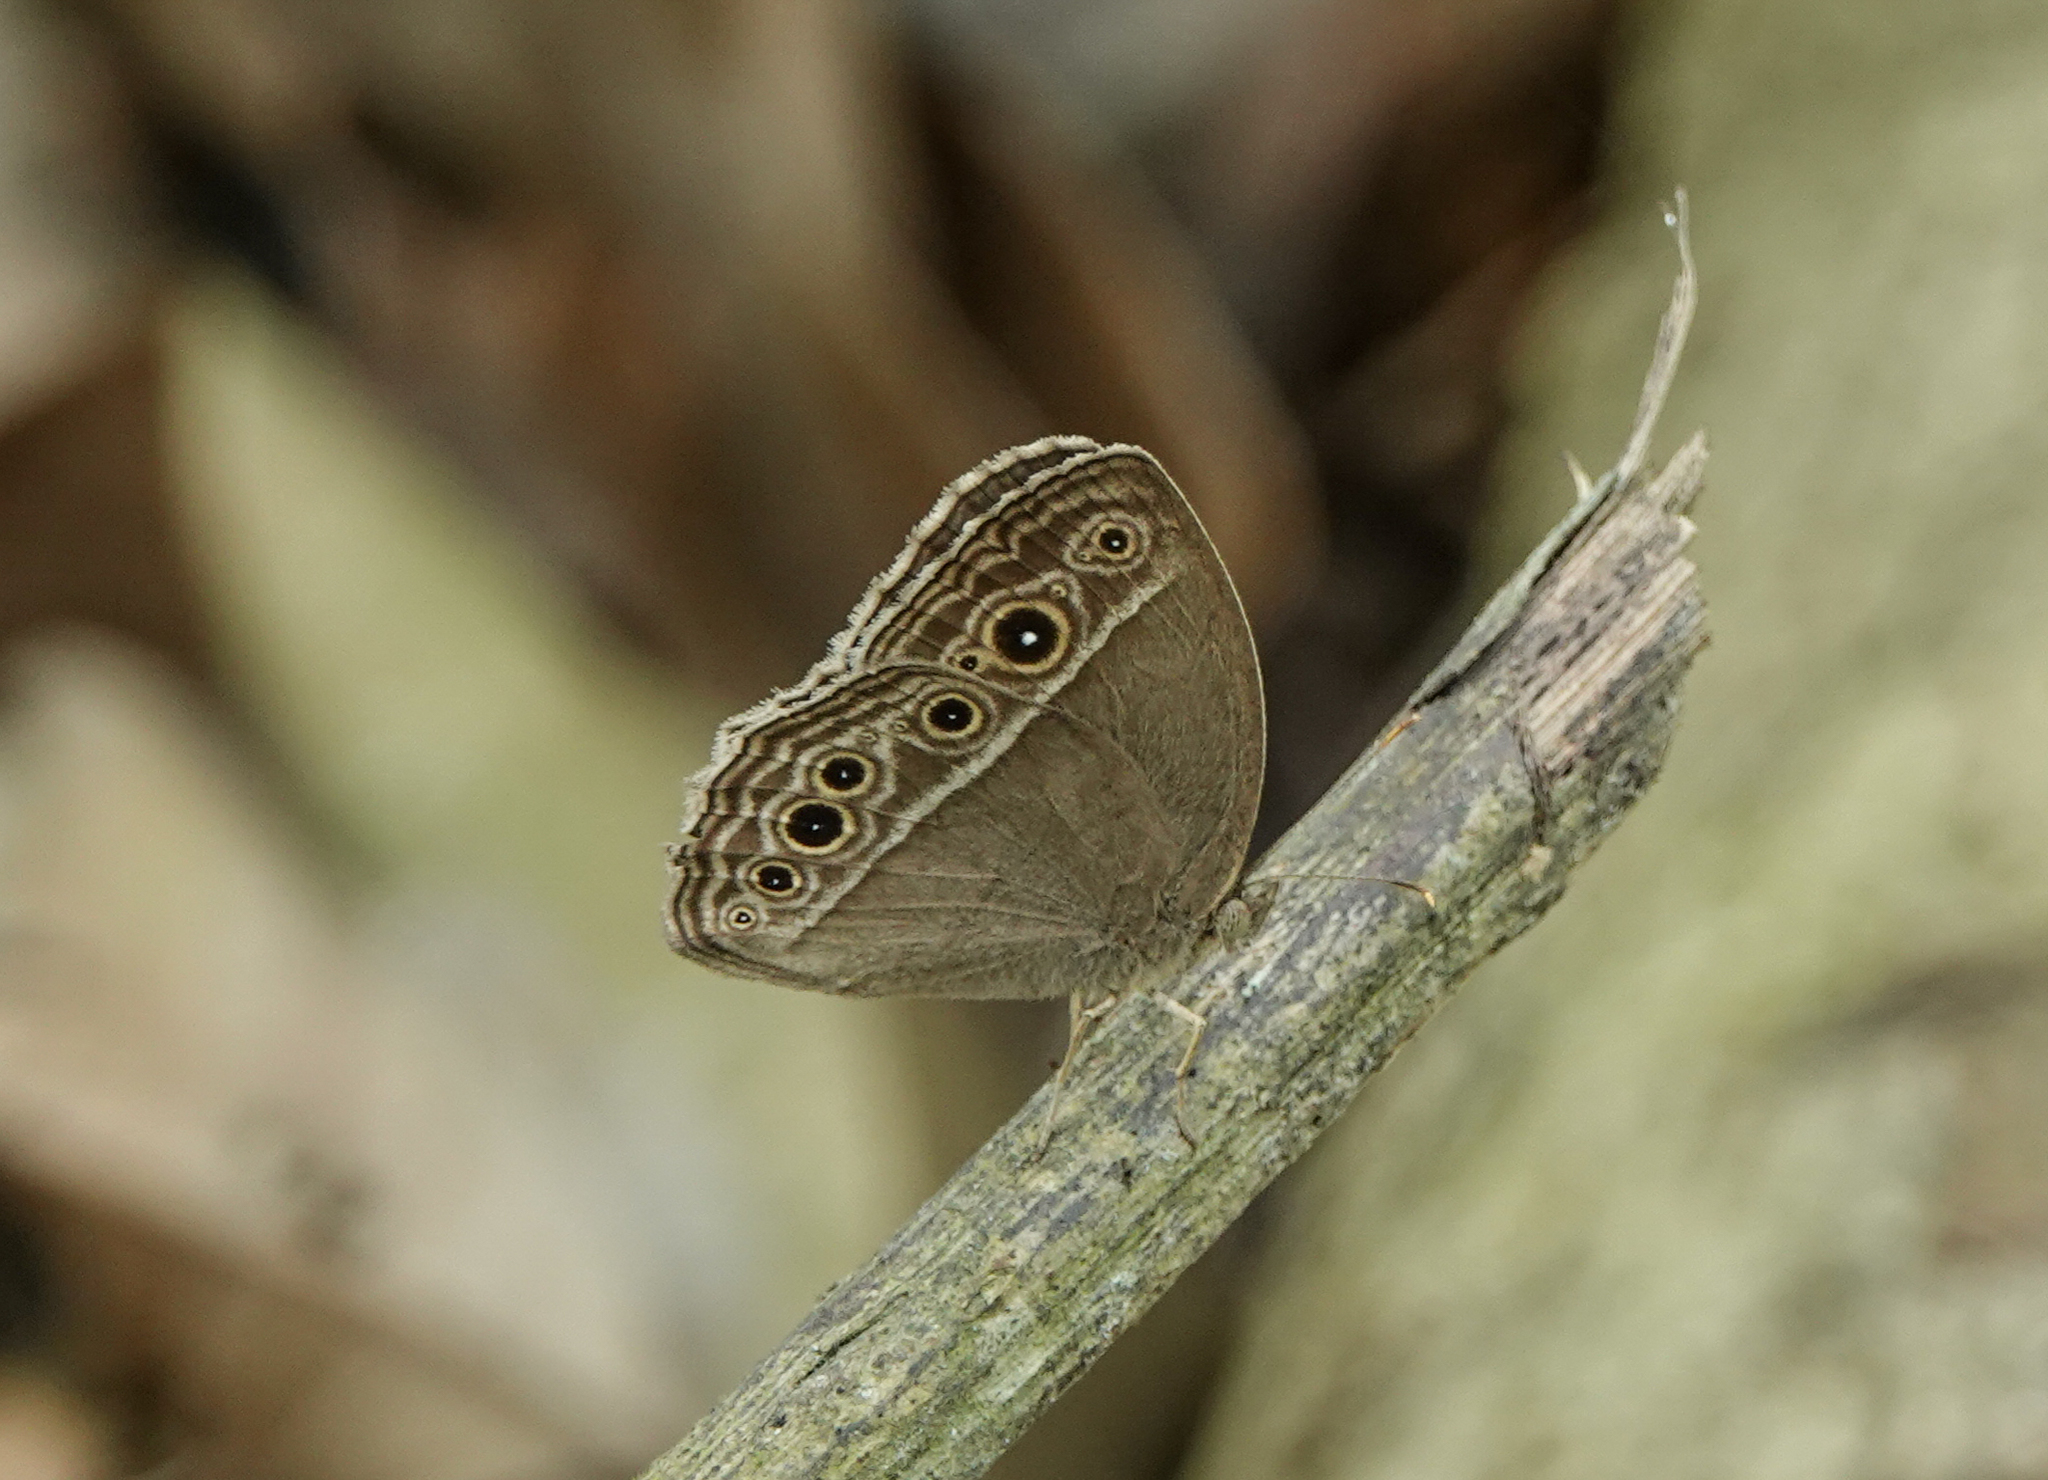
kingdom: Animalia
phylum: Arthropoda
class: Insecta
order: Lepidoptera
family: Nymphalidae
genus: Mycalesis
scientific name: Mycalesis mineus
